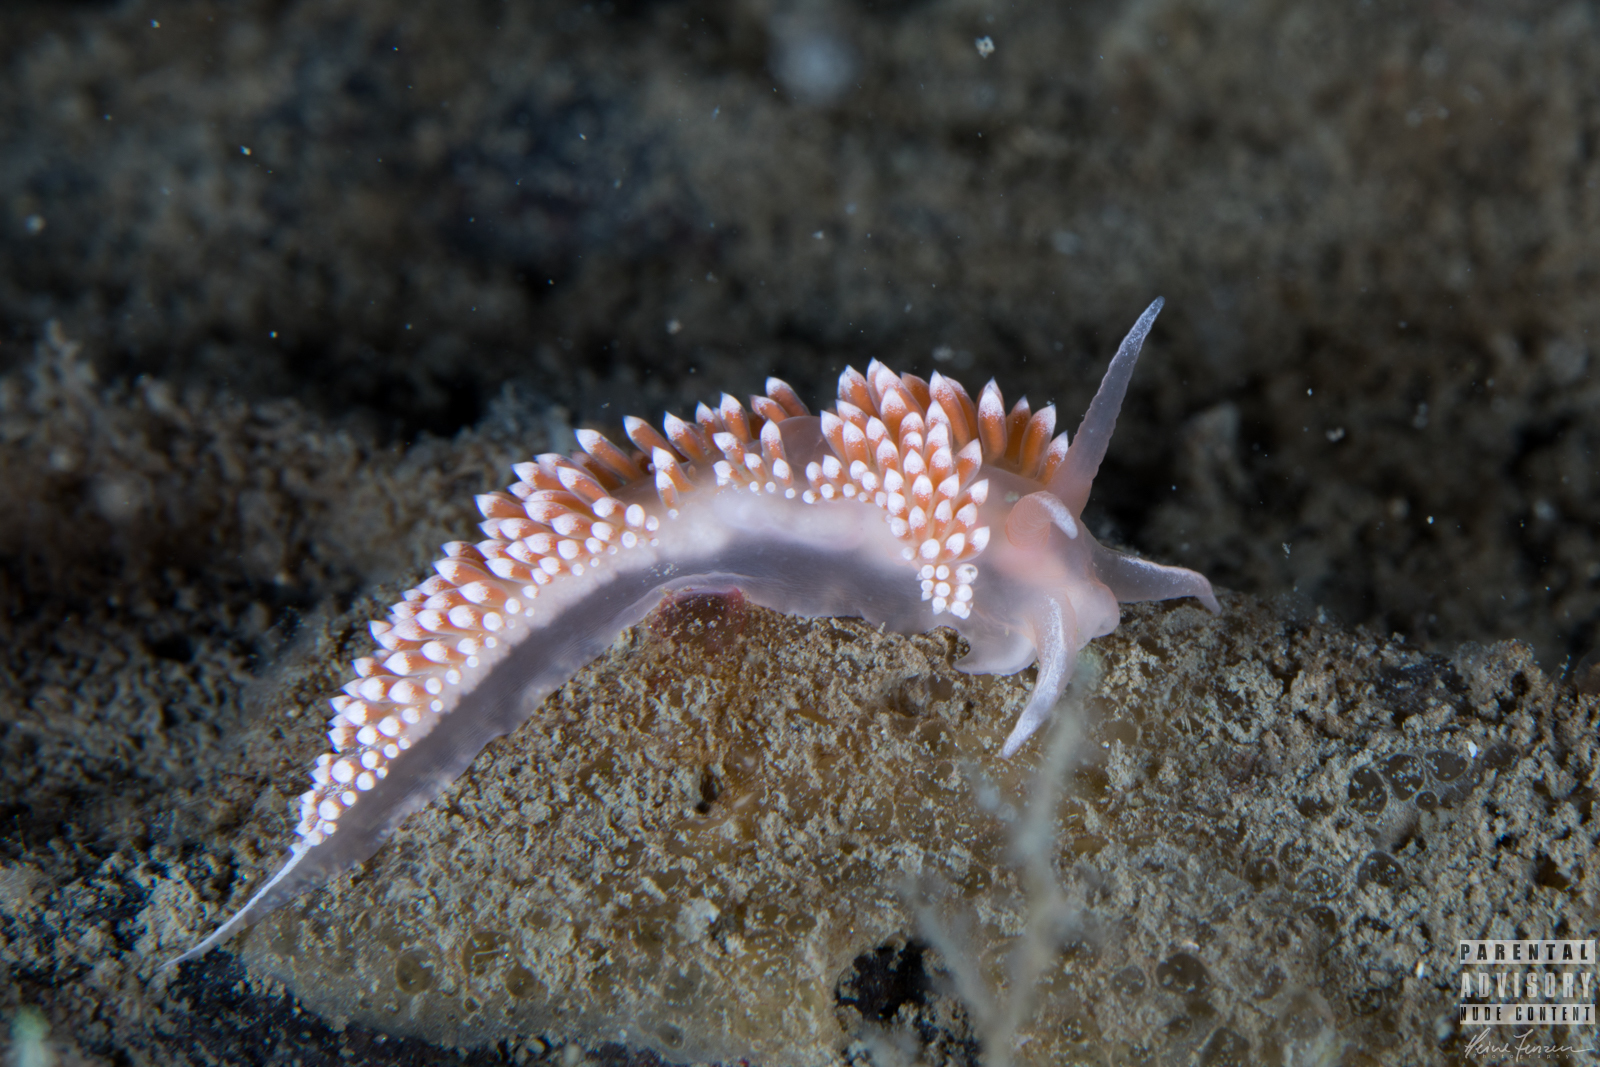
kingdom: Animalia
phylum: Mollusca
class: Gastropoda
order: Nudibranchia
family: Coryphellidae
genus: Coryphella
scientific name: Coryphella verrucosa
